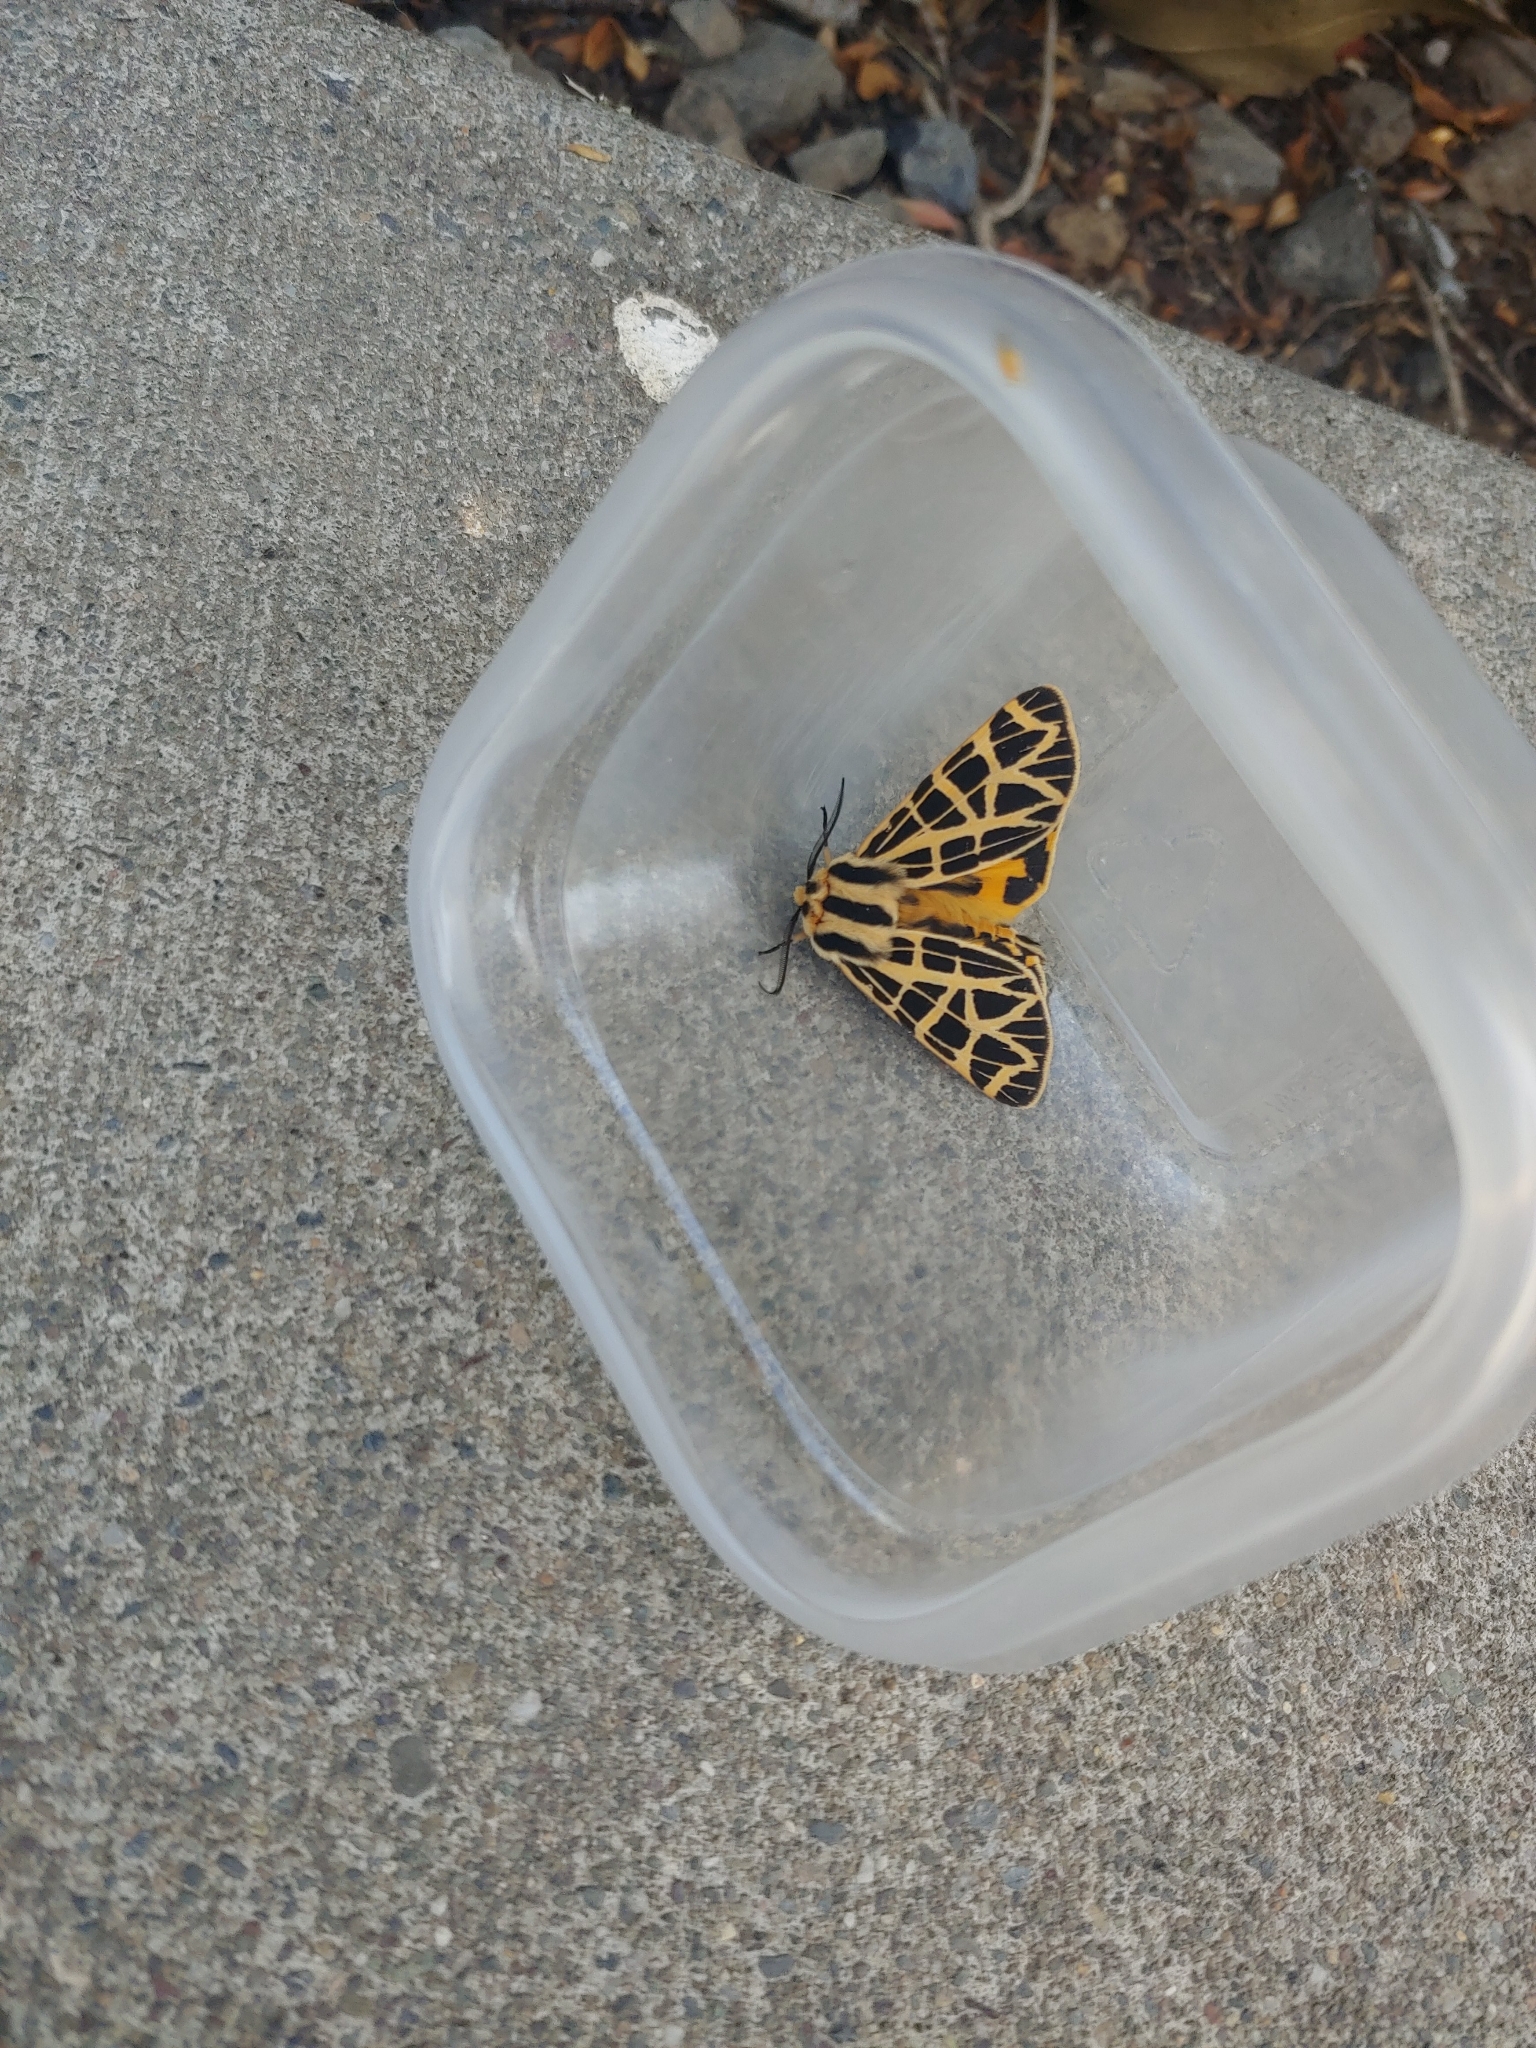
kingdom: Animalia
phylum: Arthropoda
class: Insecta
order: Lepidoptera
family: Erebidae
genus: Apantesis
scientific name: Apantesis
